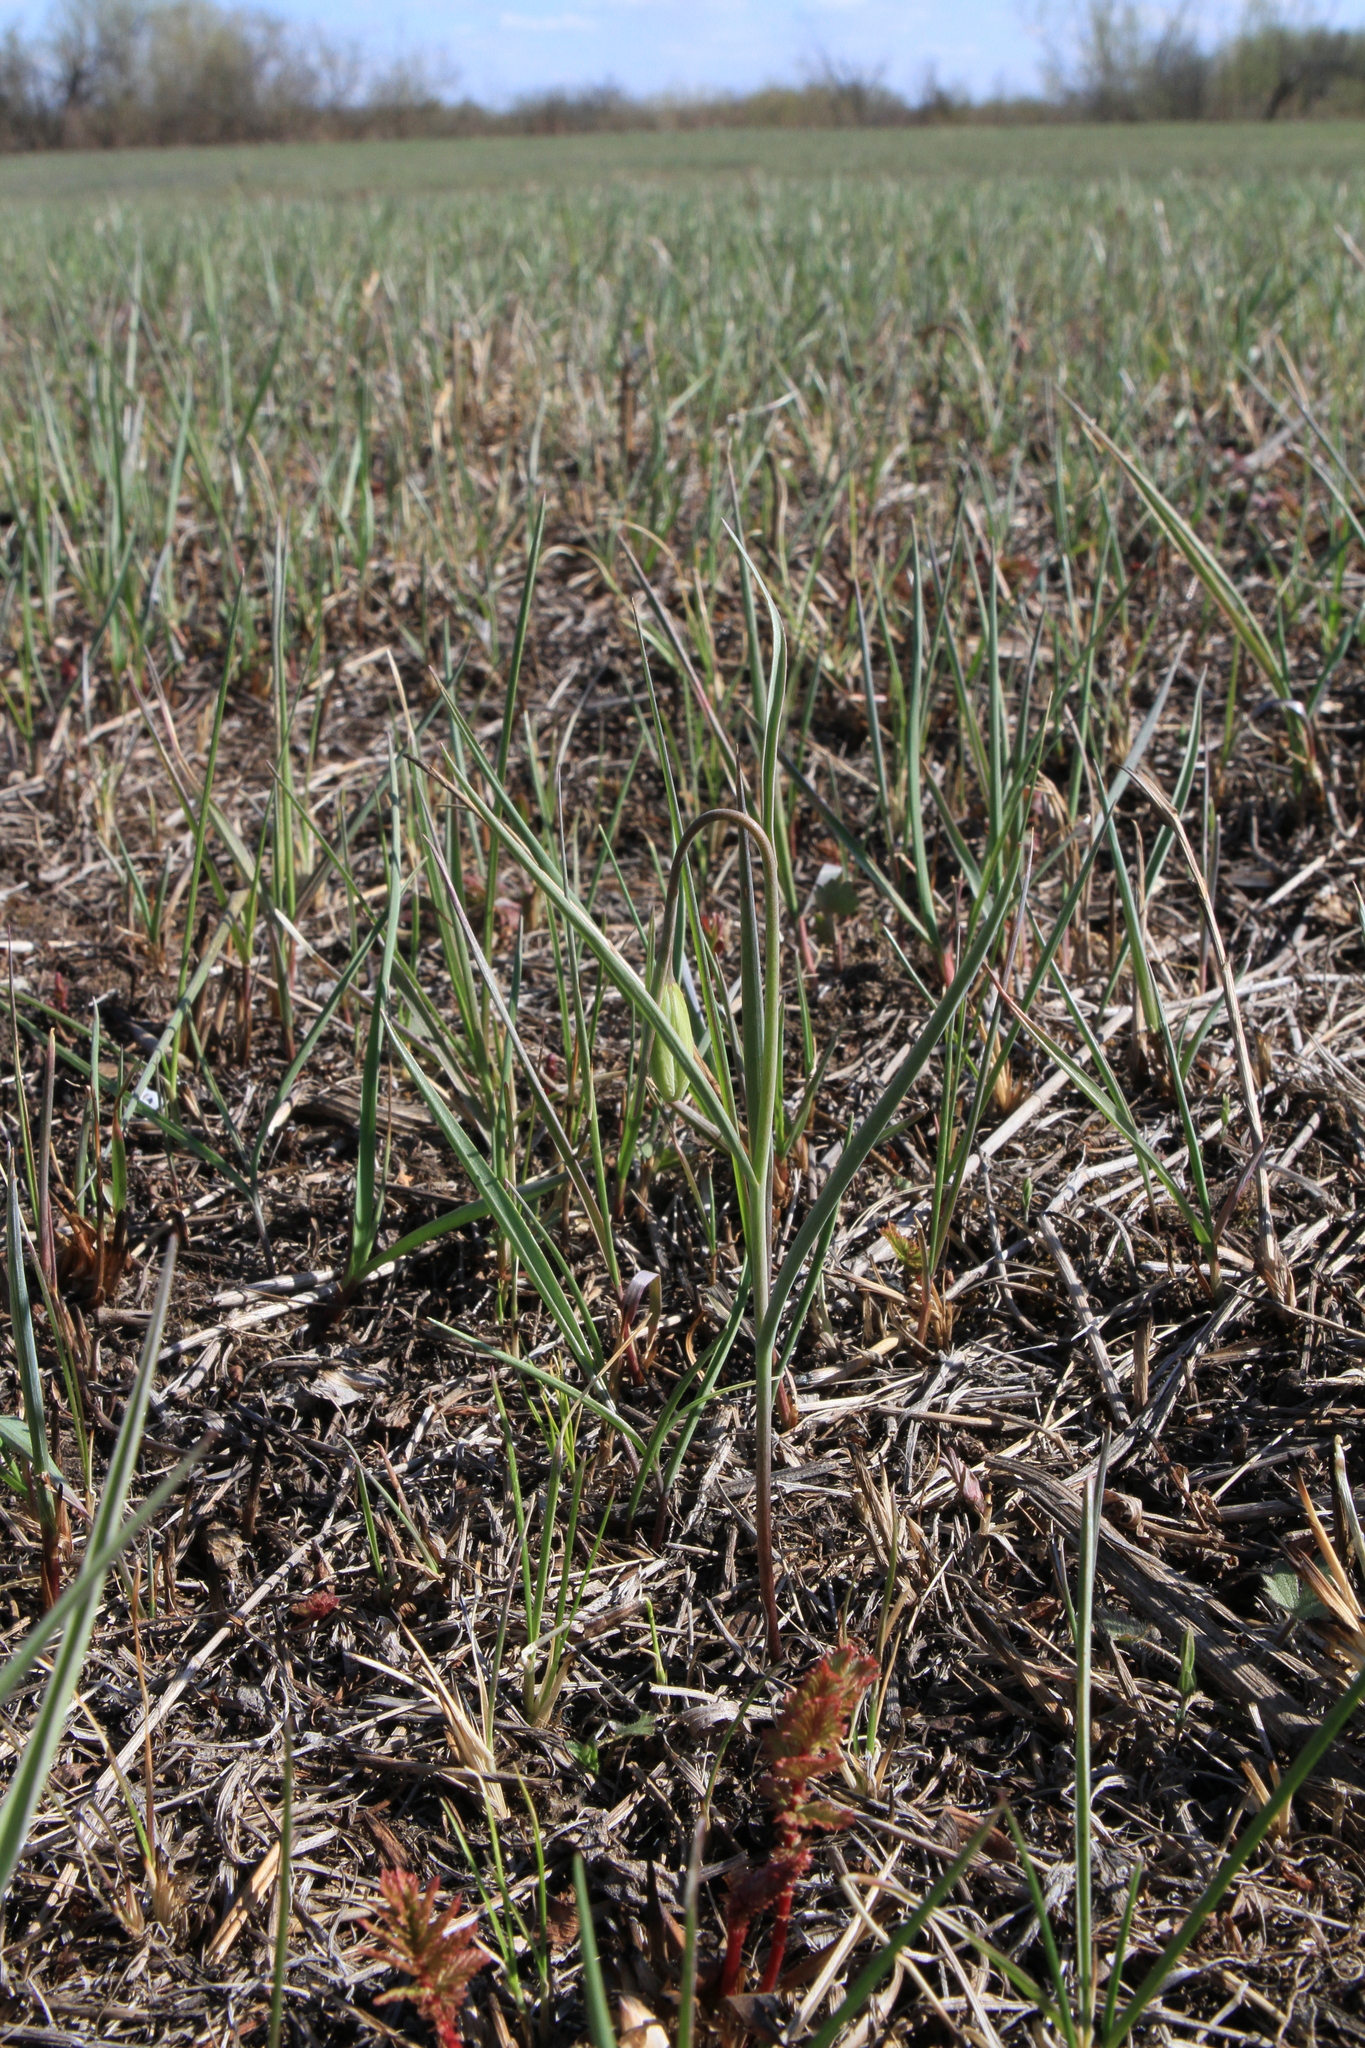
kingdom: Plantae
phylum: Tracheophyta
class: Liliopsida
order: Liliales
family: Liliaceae
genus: Fritillaria
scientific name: Fritillaria meleagroides
